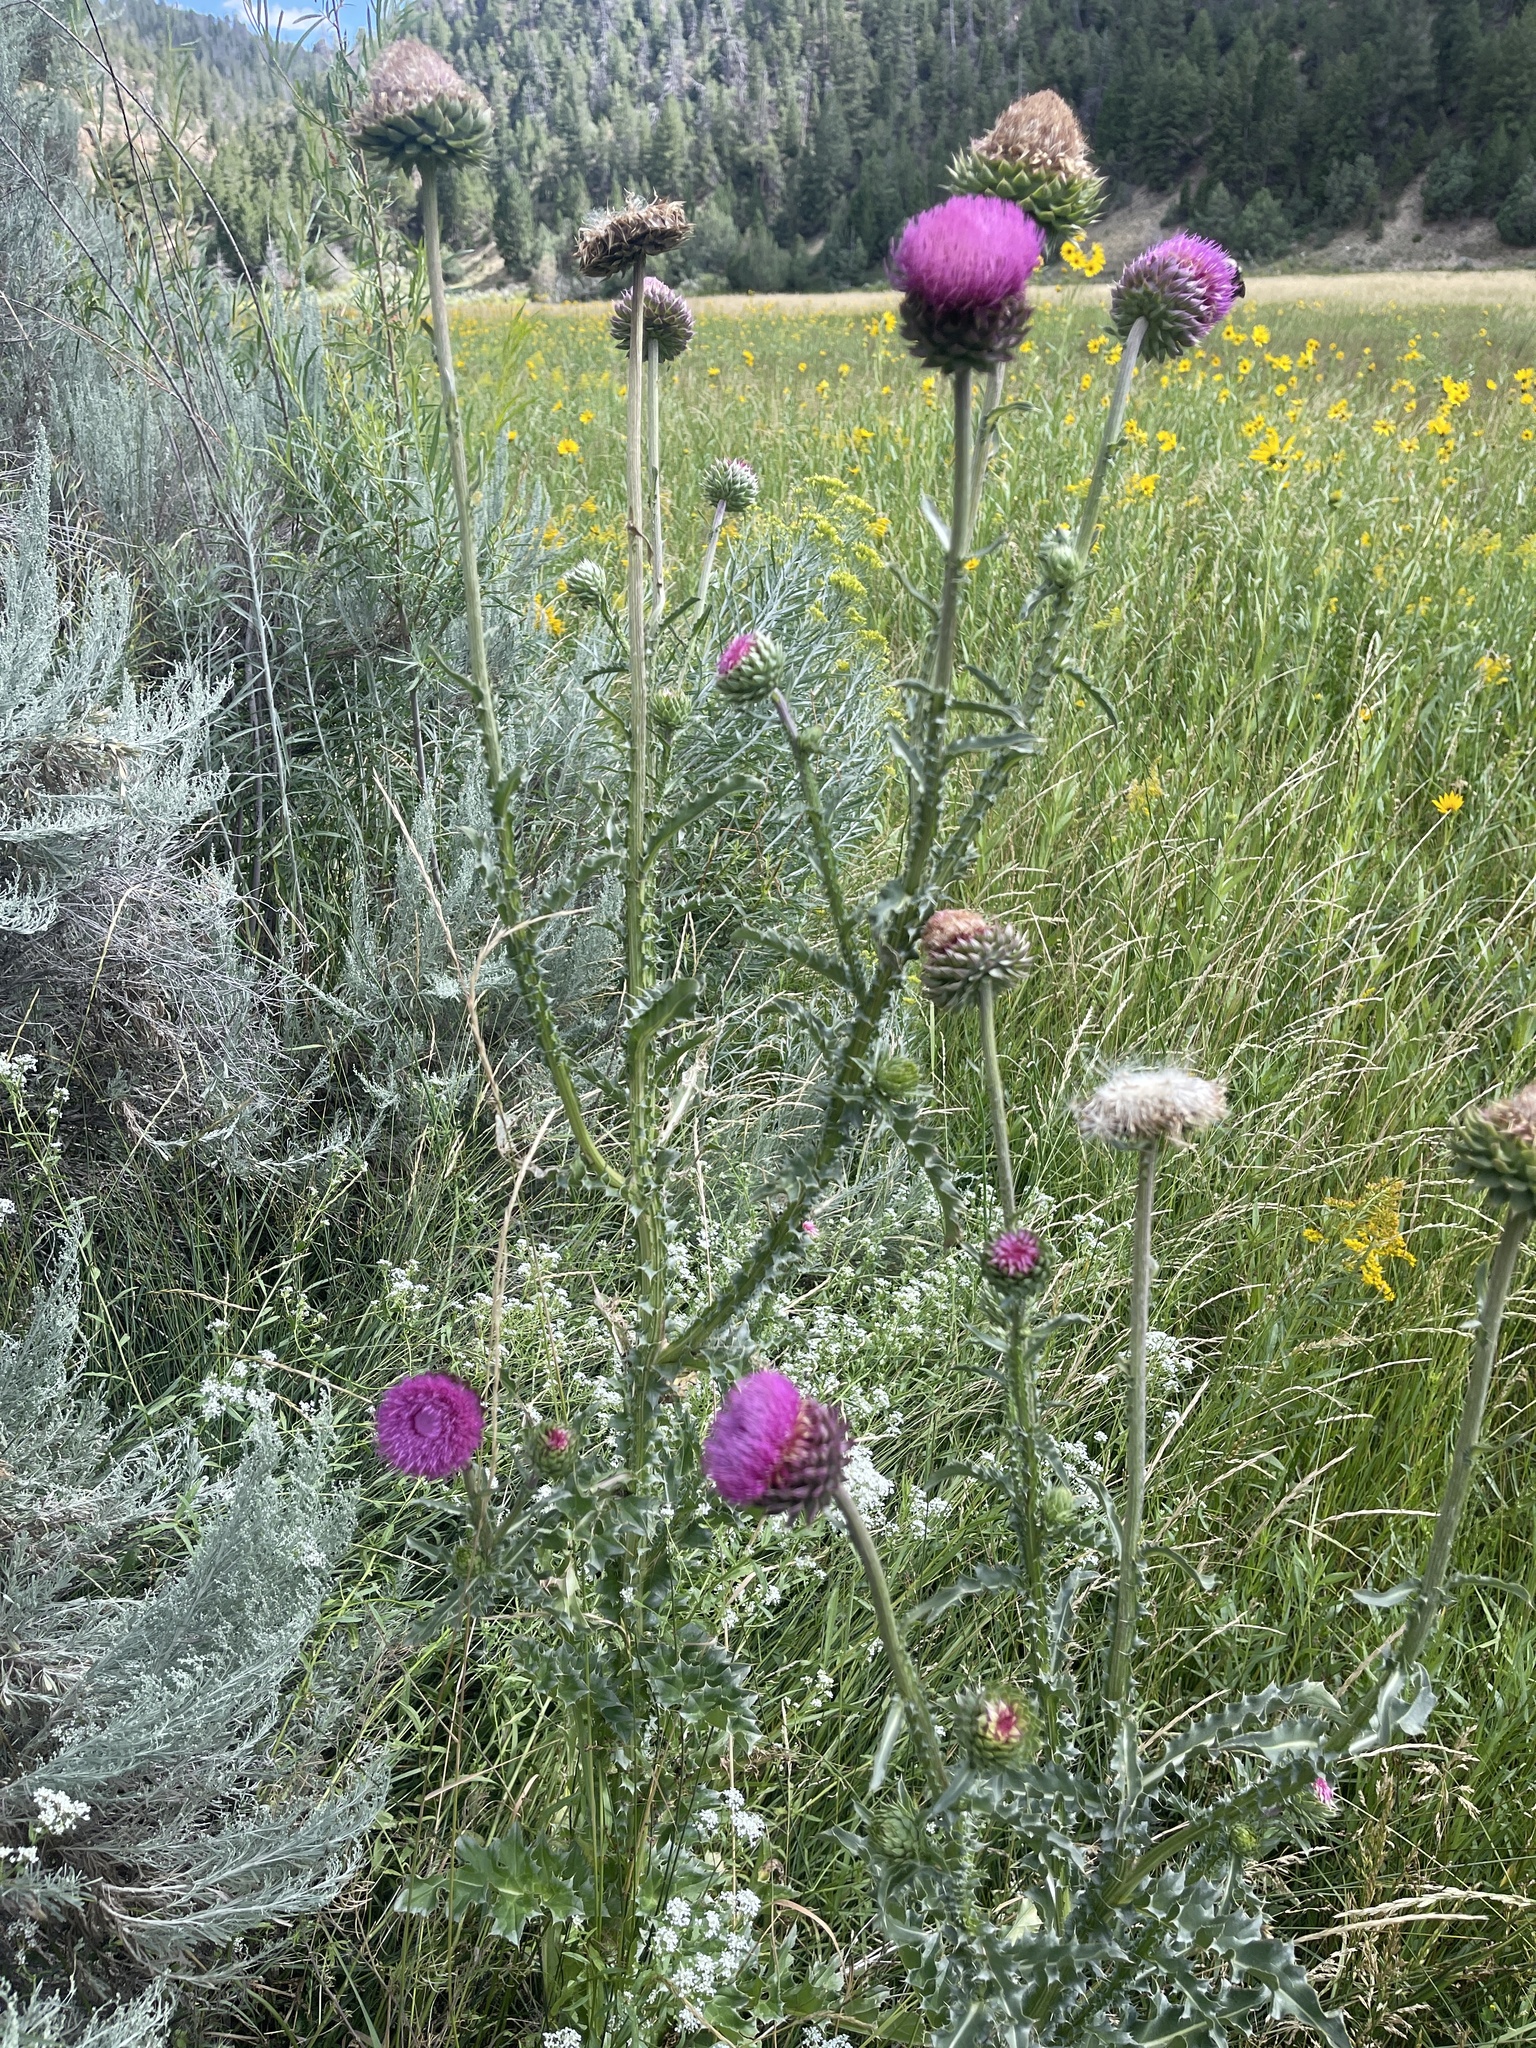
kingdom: Plantae
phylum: Tracheophyta
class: Magnoliopsida
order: Asterales
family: Asteraceae
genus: Carduus
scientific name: Carduus nutans
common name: Musk thistle
